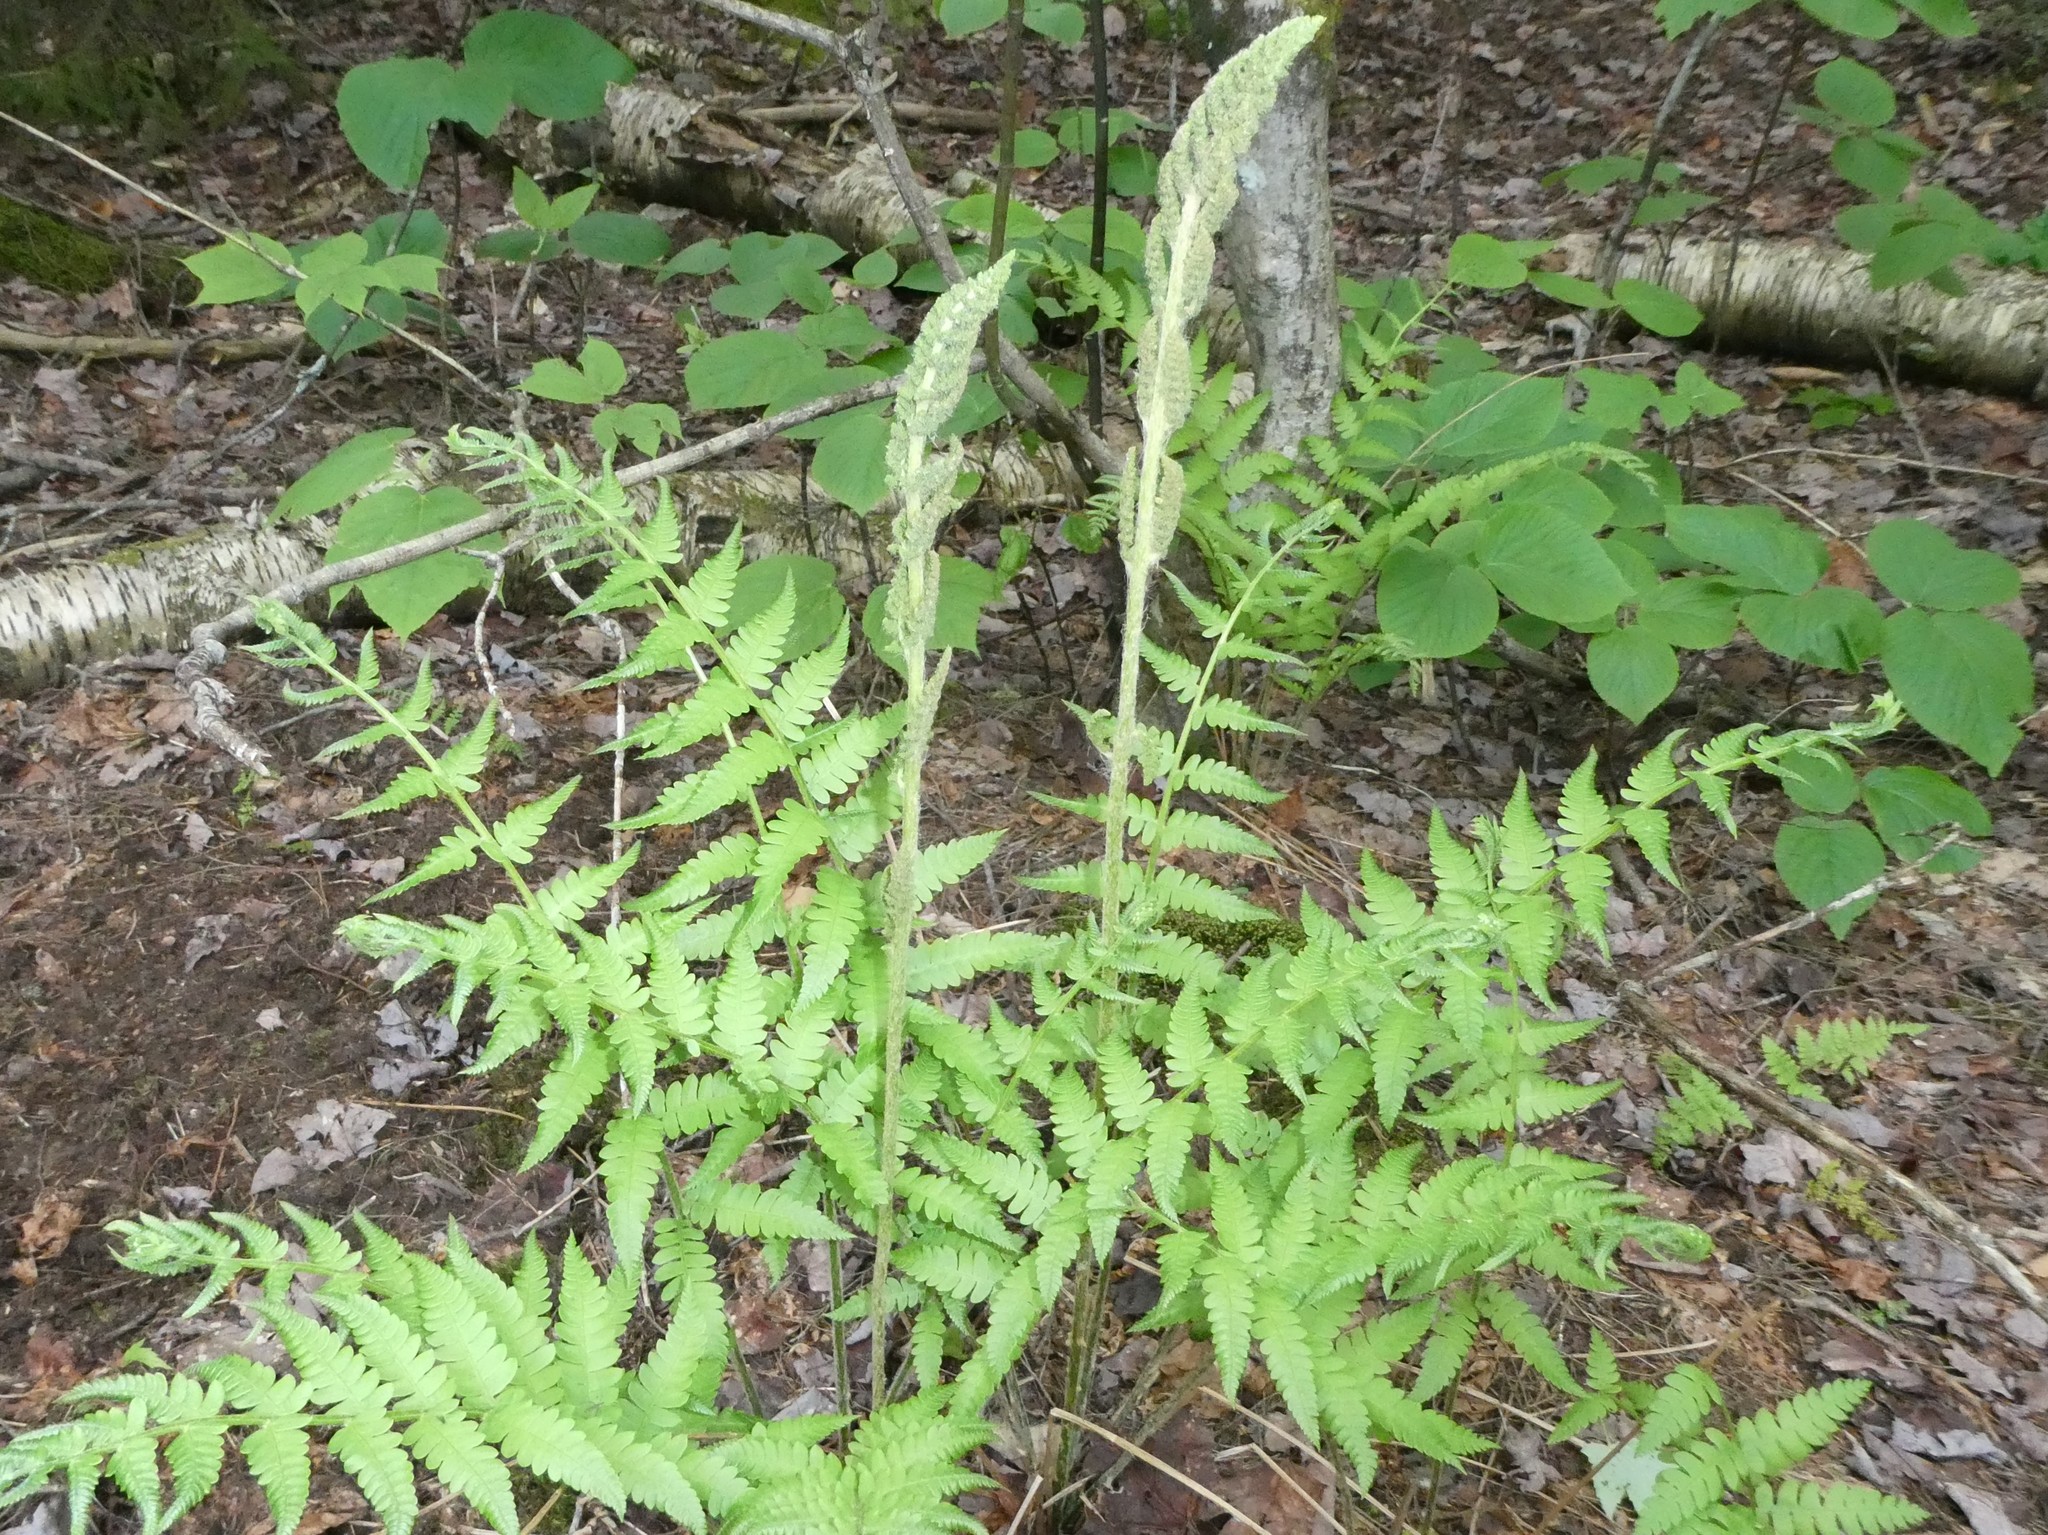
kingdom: Plantae
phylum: Tracheophyta
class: Polypodiopsida
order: Osmundales
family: Osmundaceae
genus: Osmundastrum
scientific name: Osmundastrum cinnamomeum
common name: Cinnamon fern
